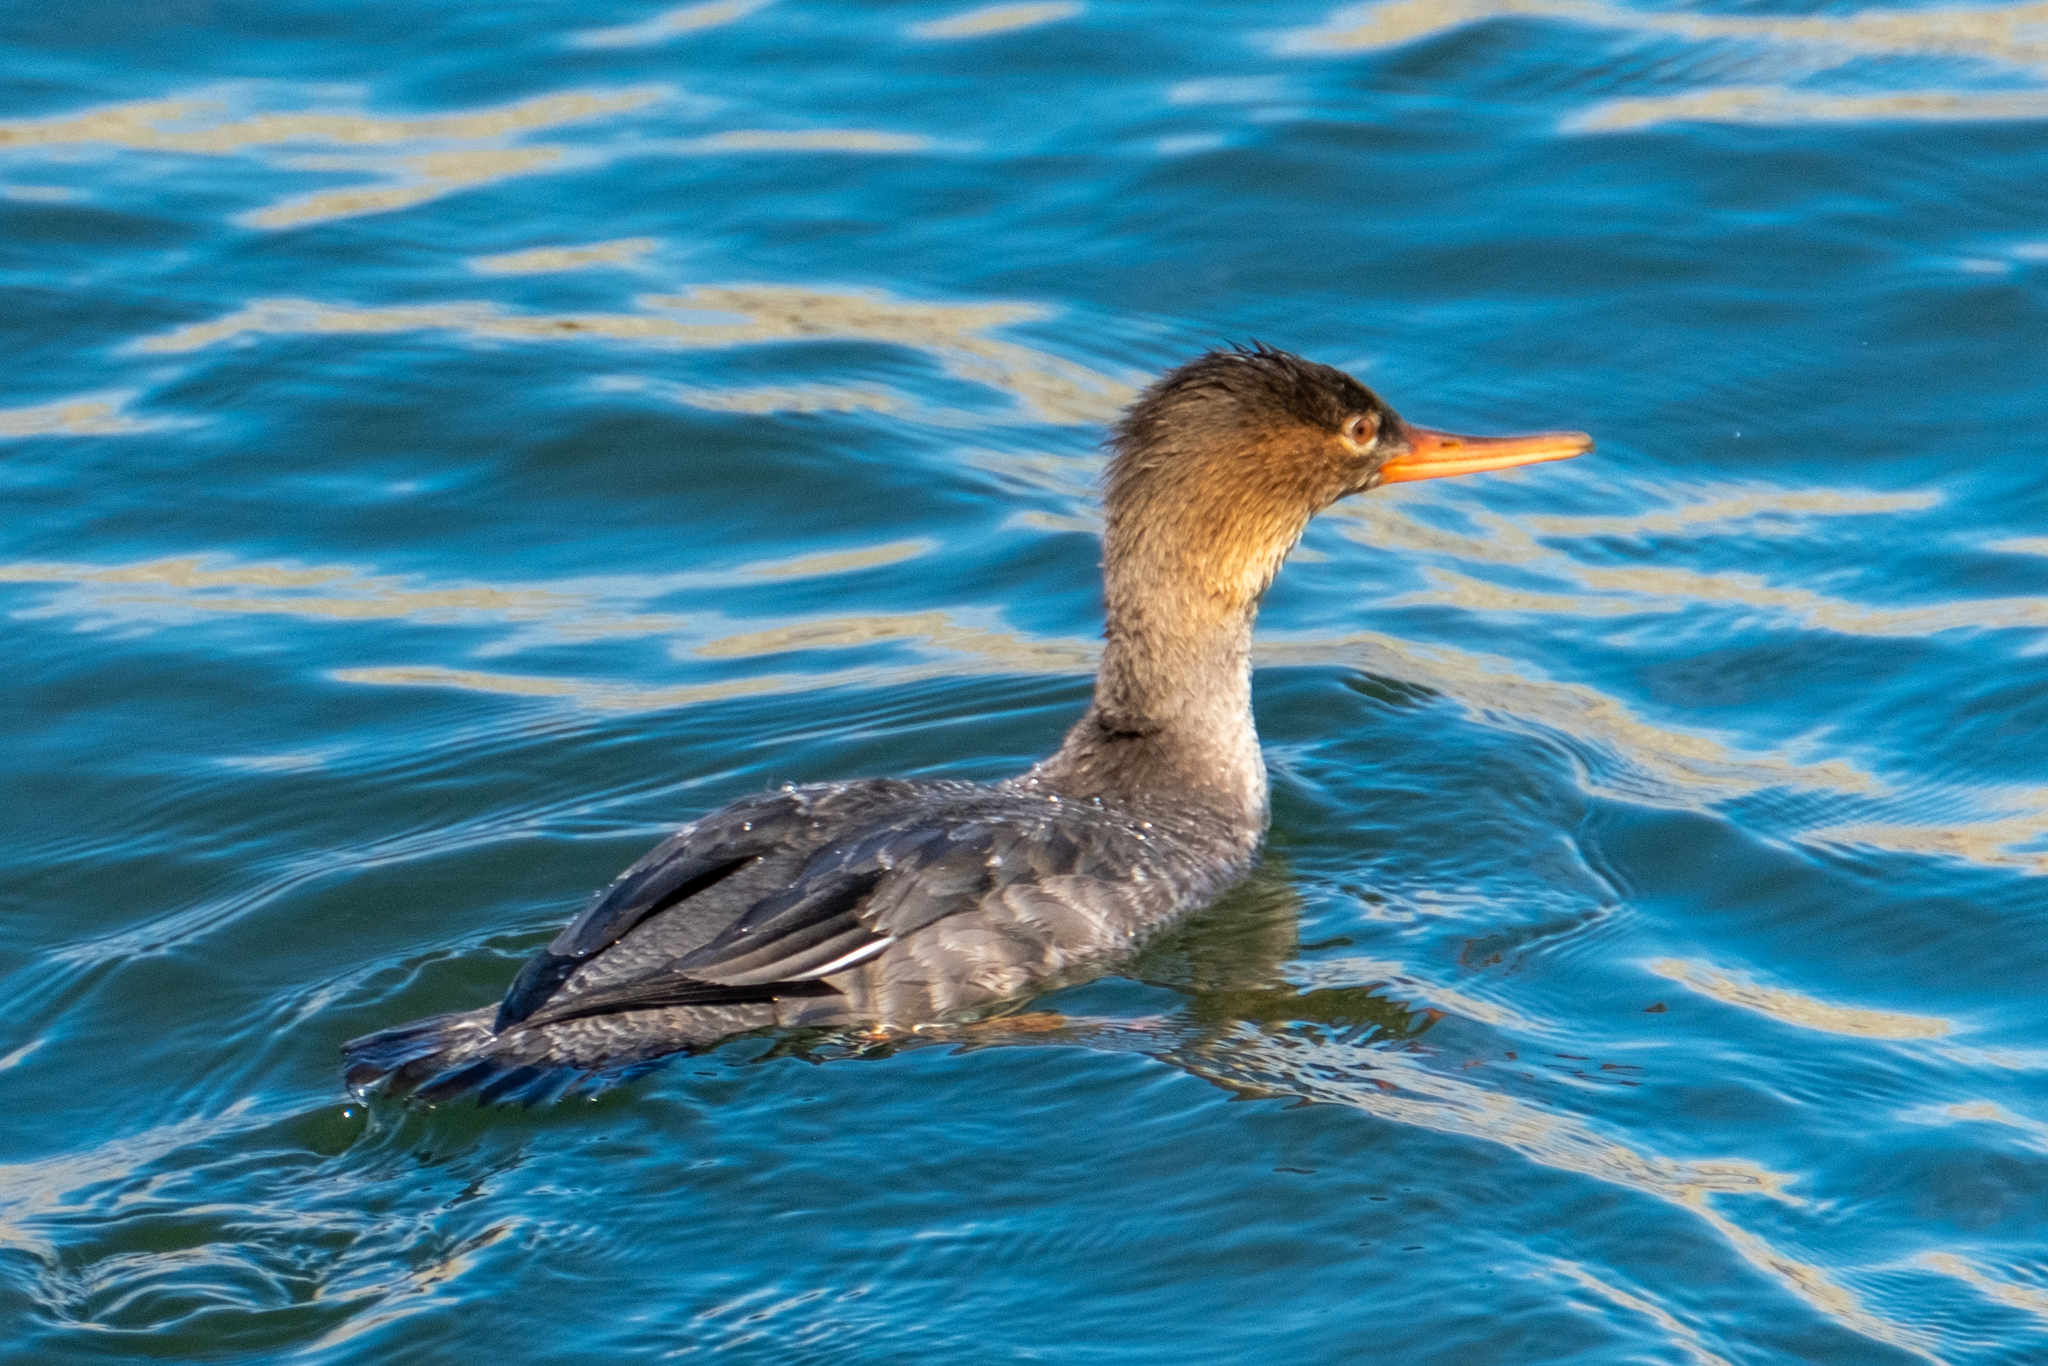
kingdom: Animalia
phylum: Chordata
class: Aves
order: Anseriformes
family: Anatidae
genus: Mergus
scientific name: Mergus serrator
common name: Red-breasted merganser
